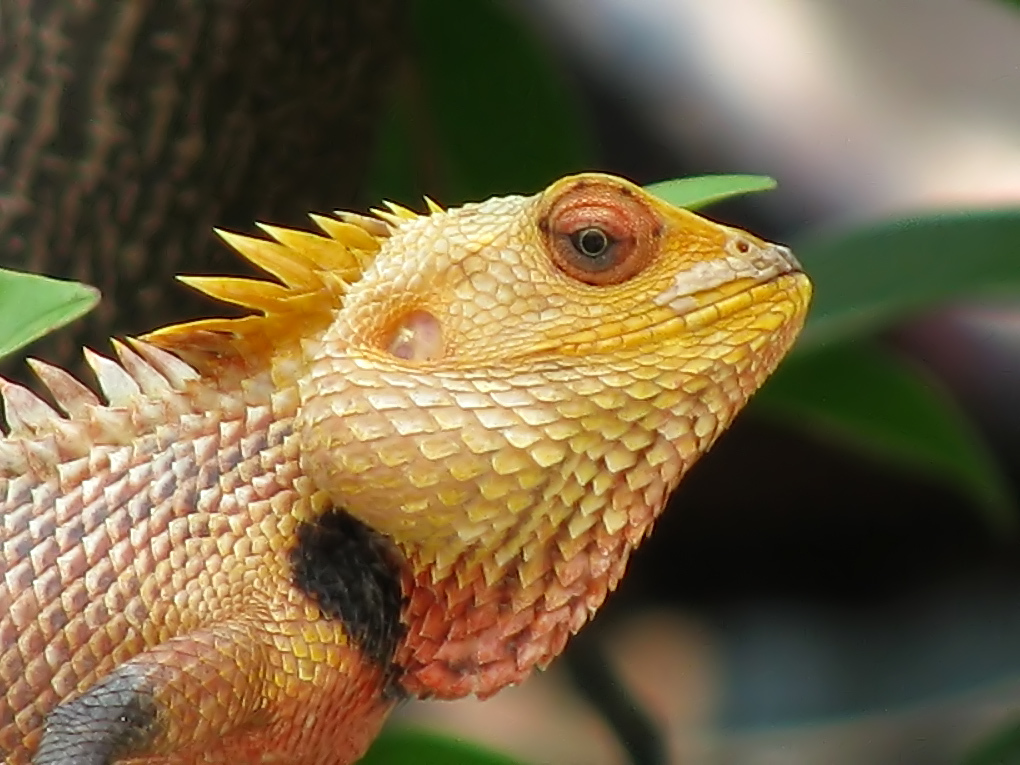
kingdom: Animalia
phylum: Chordata
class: Squamata
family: Agamidae
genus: Calotes
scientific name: Calotes versicolor
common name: Oriental garden lizard
